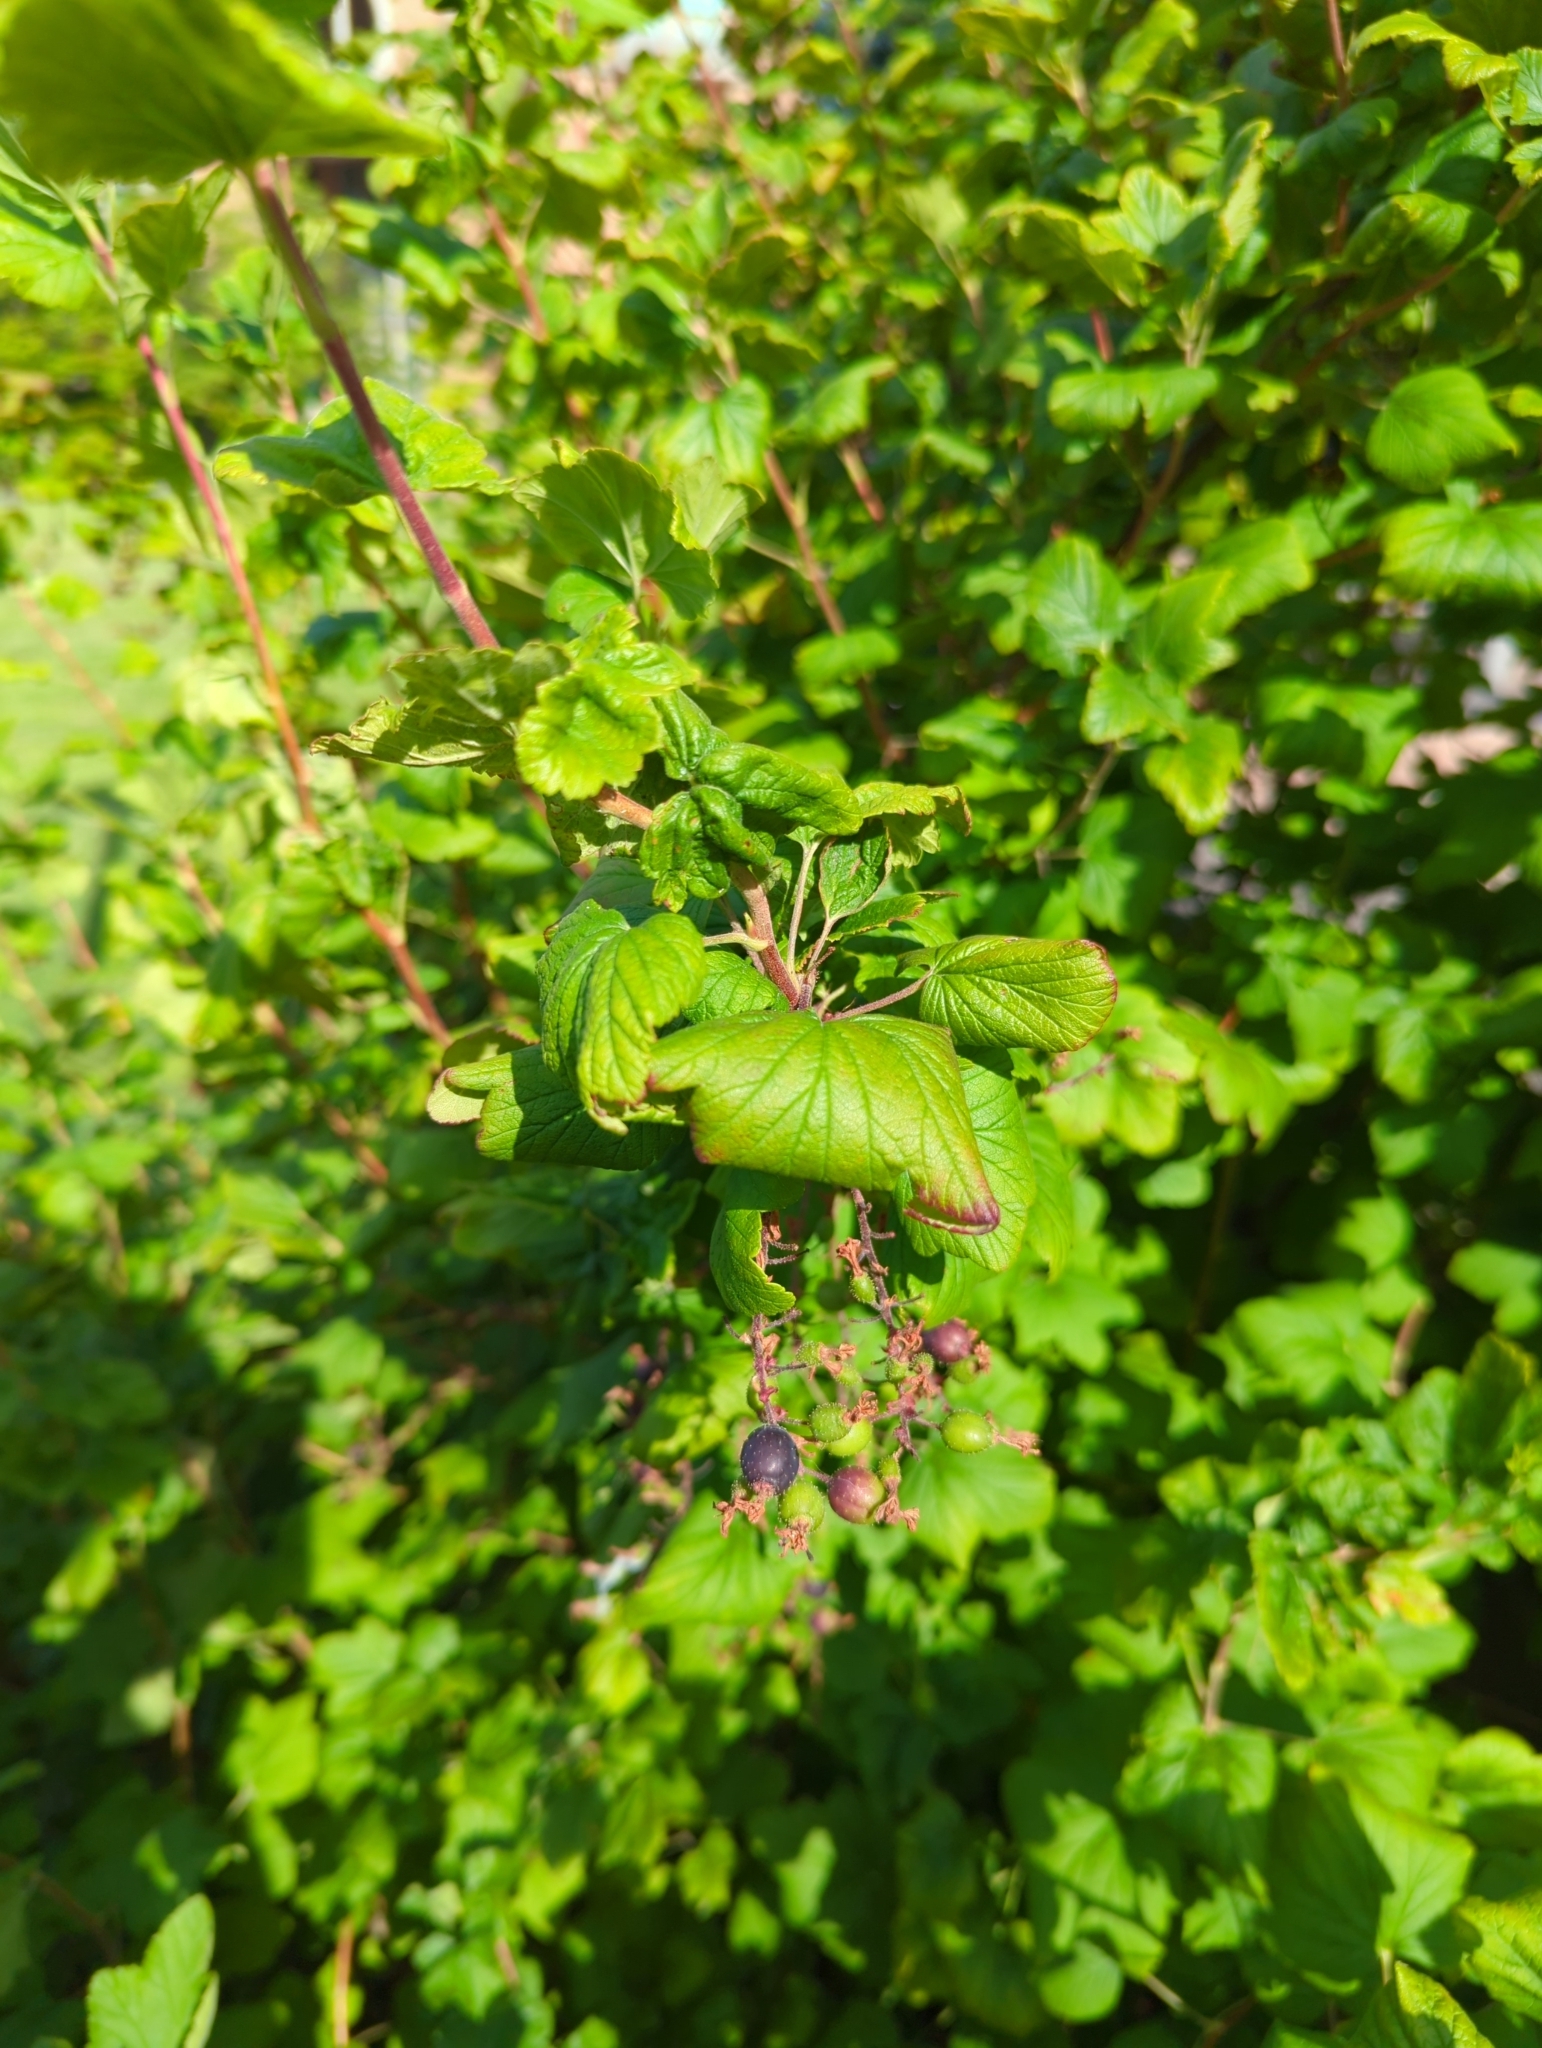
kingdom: Plantae
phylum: Tracheophyta
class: Magnoliopsida
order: Saxifragales
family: Grossulariaceae
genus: Ribes
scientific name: Ribes sanguineum
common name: Flowering currant
